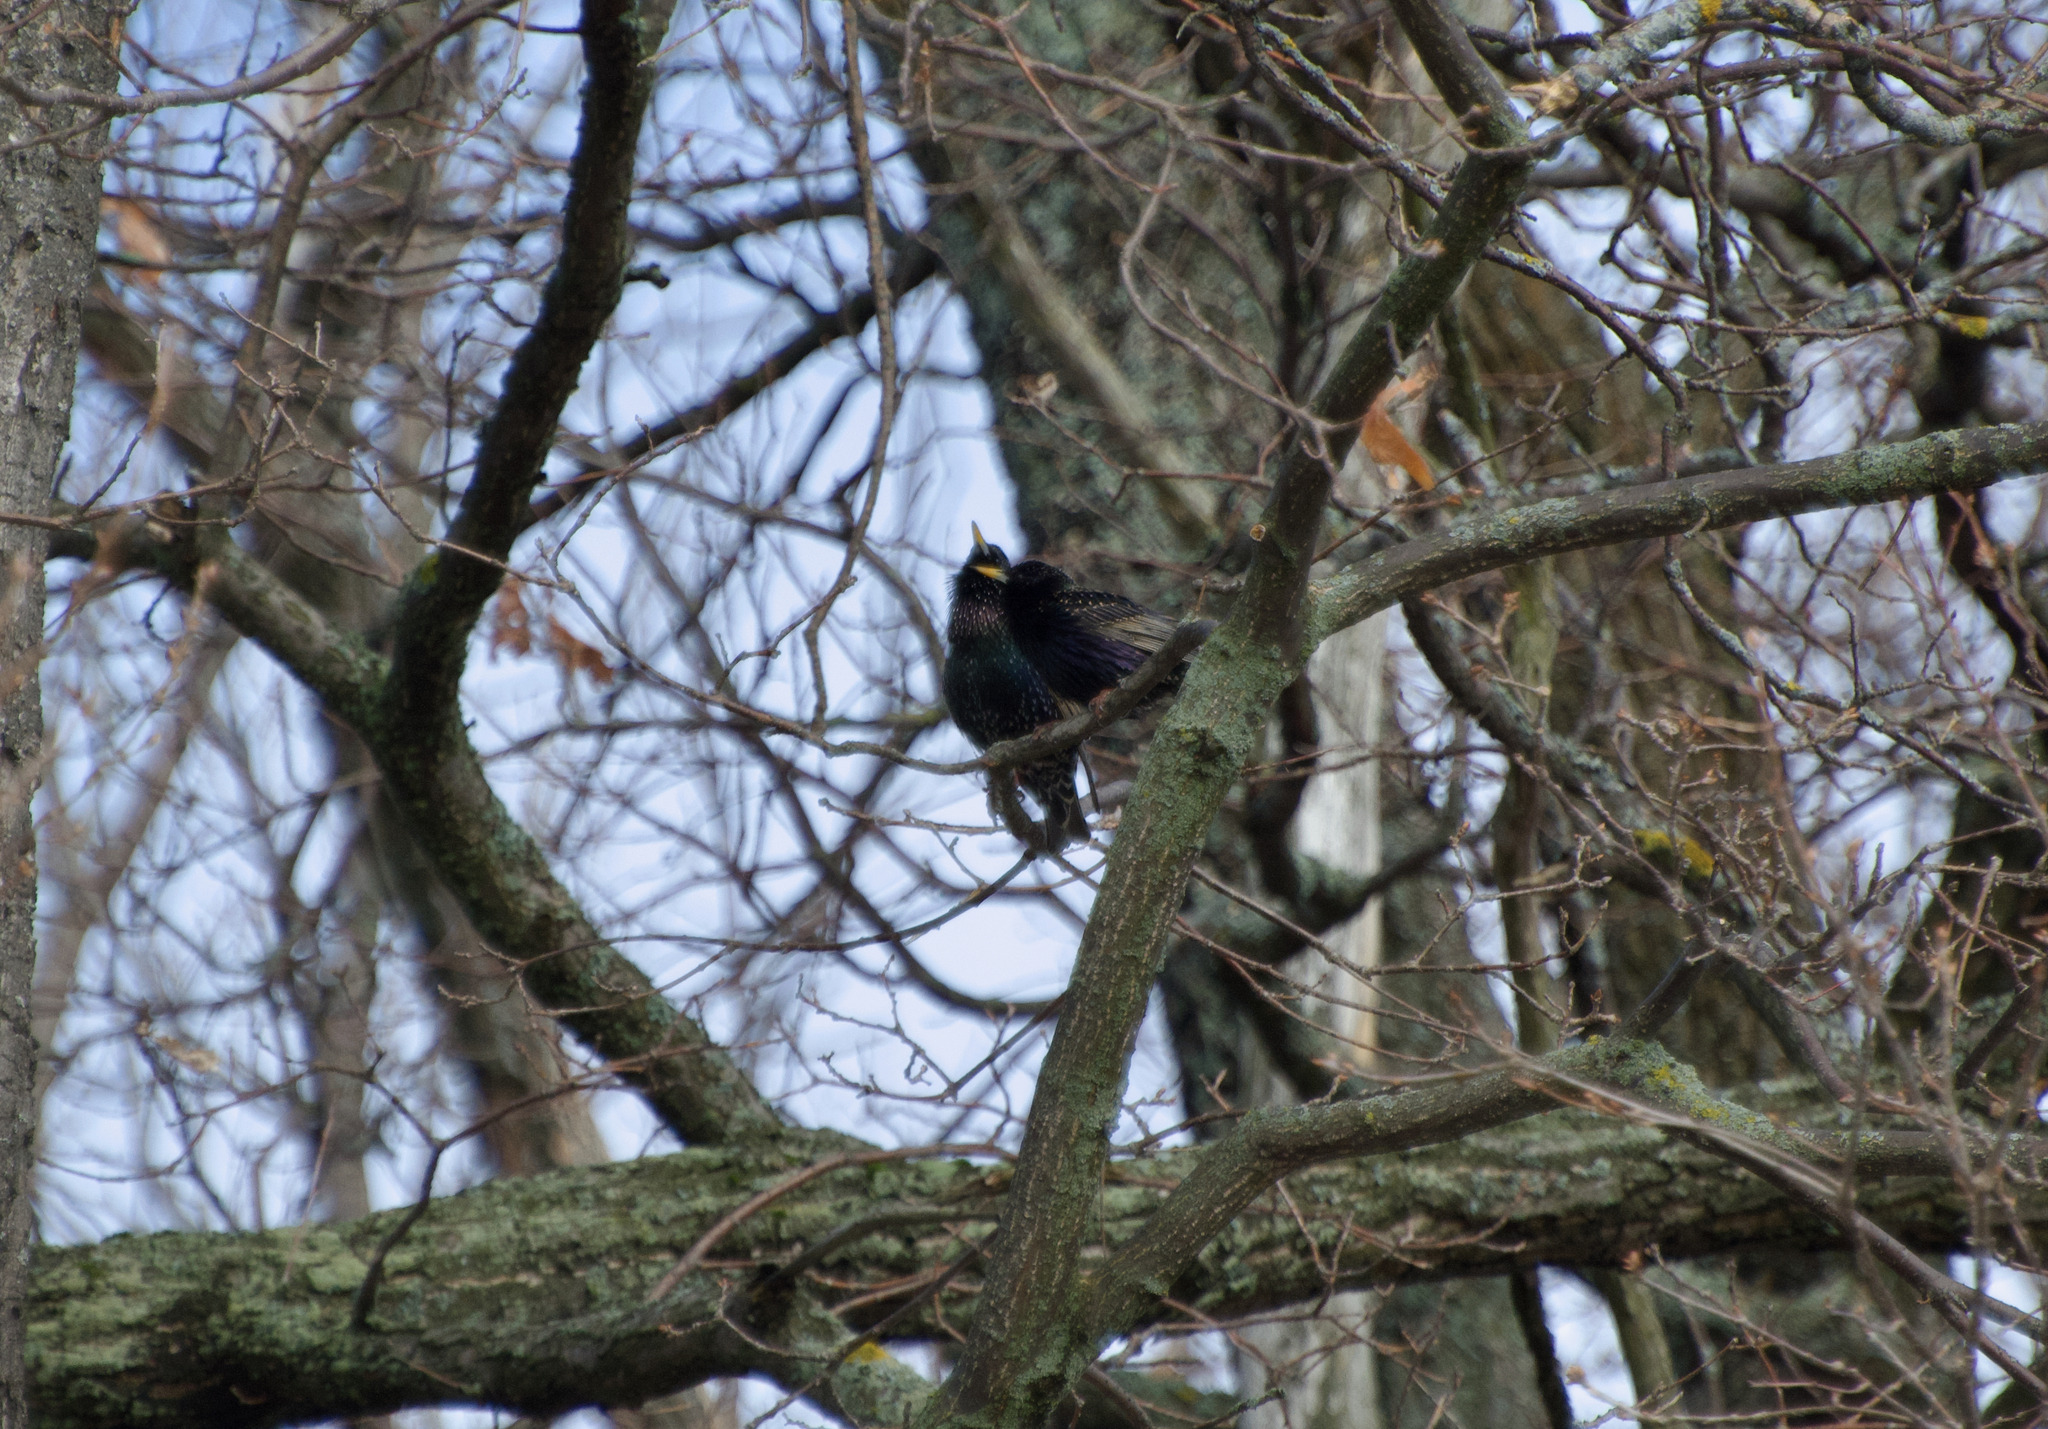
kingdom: Animalia
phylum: Chordata
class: Aves
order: Passeriformes
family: Sturnidae
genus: Sturnus
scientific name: Sturnus vulgaris
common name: Common starling
